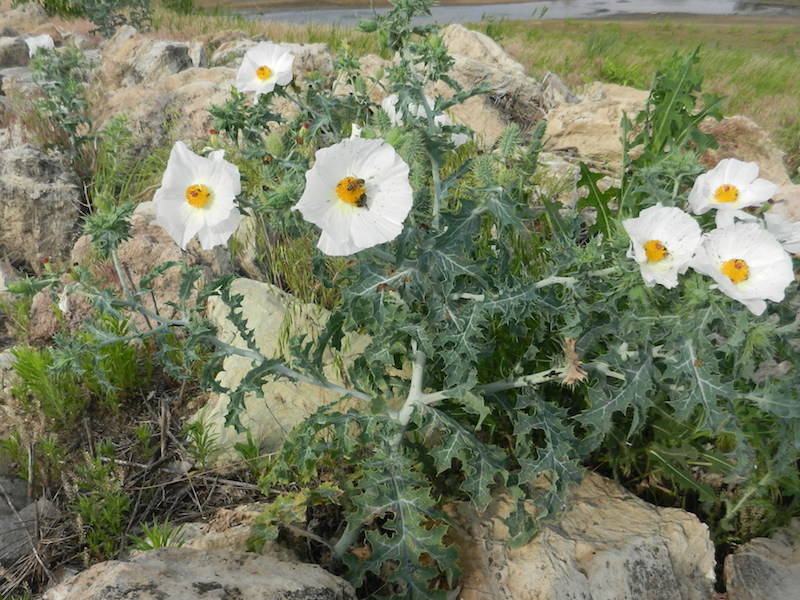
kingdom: Plantae
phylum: Tracheophyta
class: Magnoliopsida
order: Ranunculales
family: Papaveraceae
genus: Argemone
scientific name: Argemone polyanthemos
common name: Plains prickly-poppy
